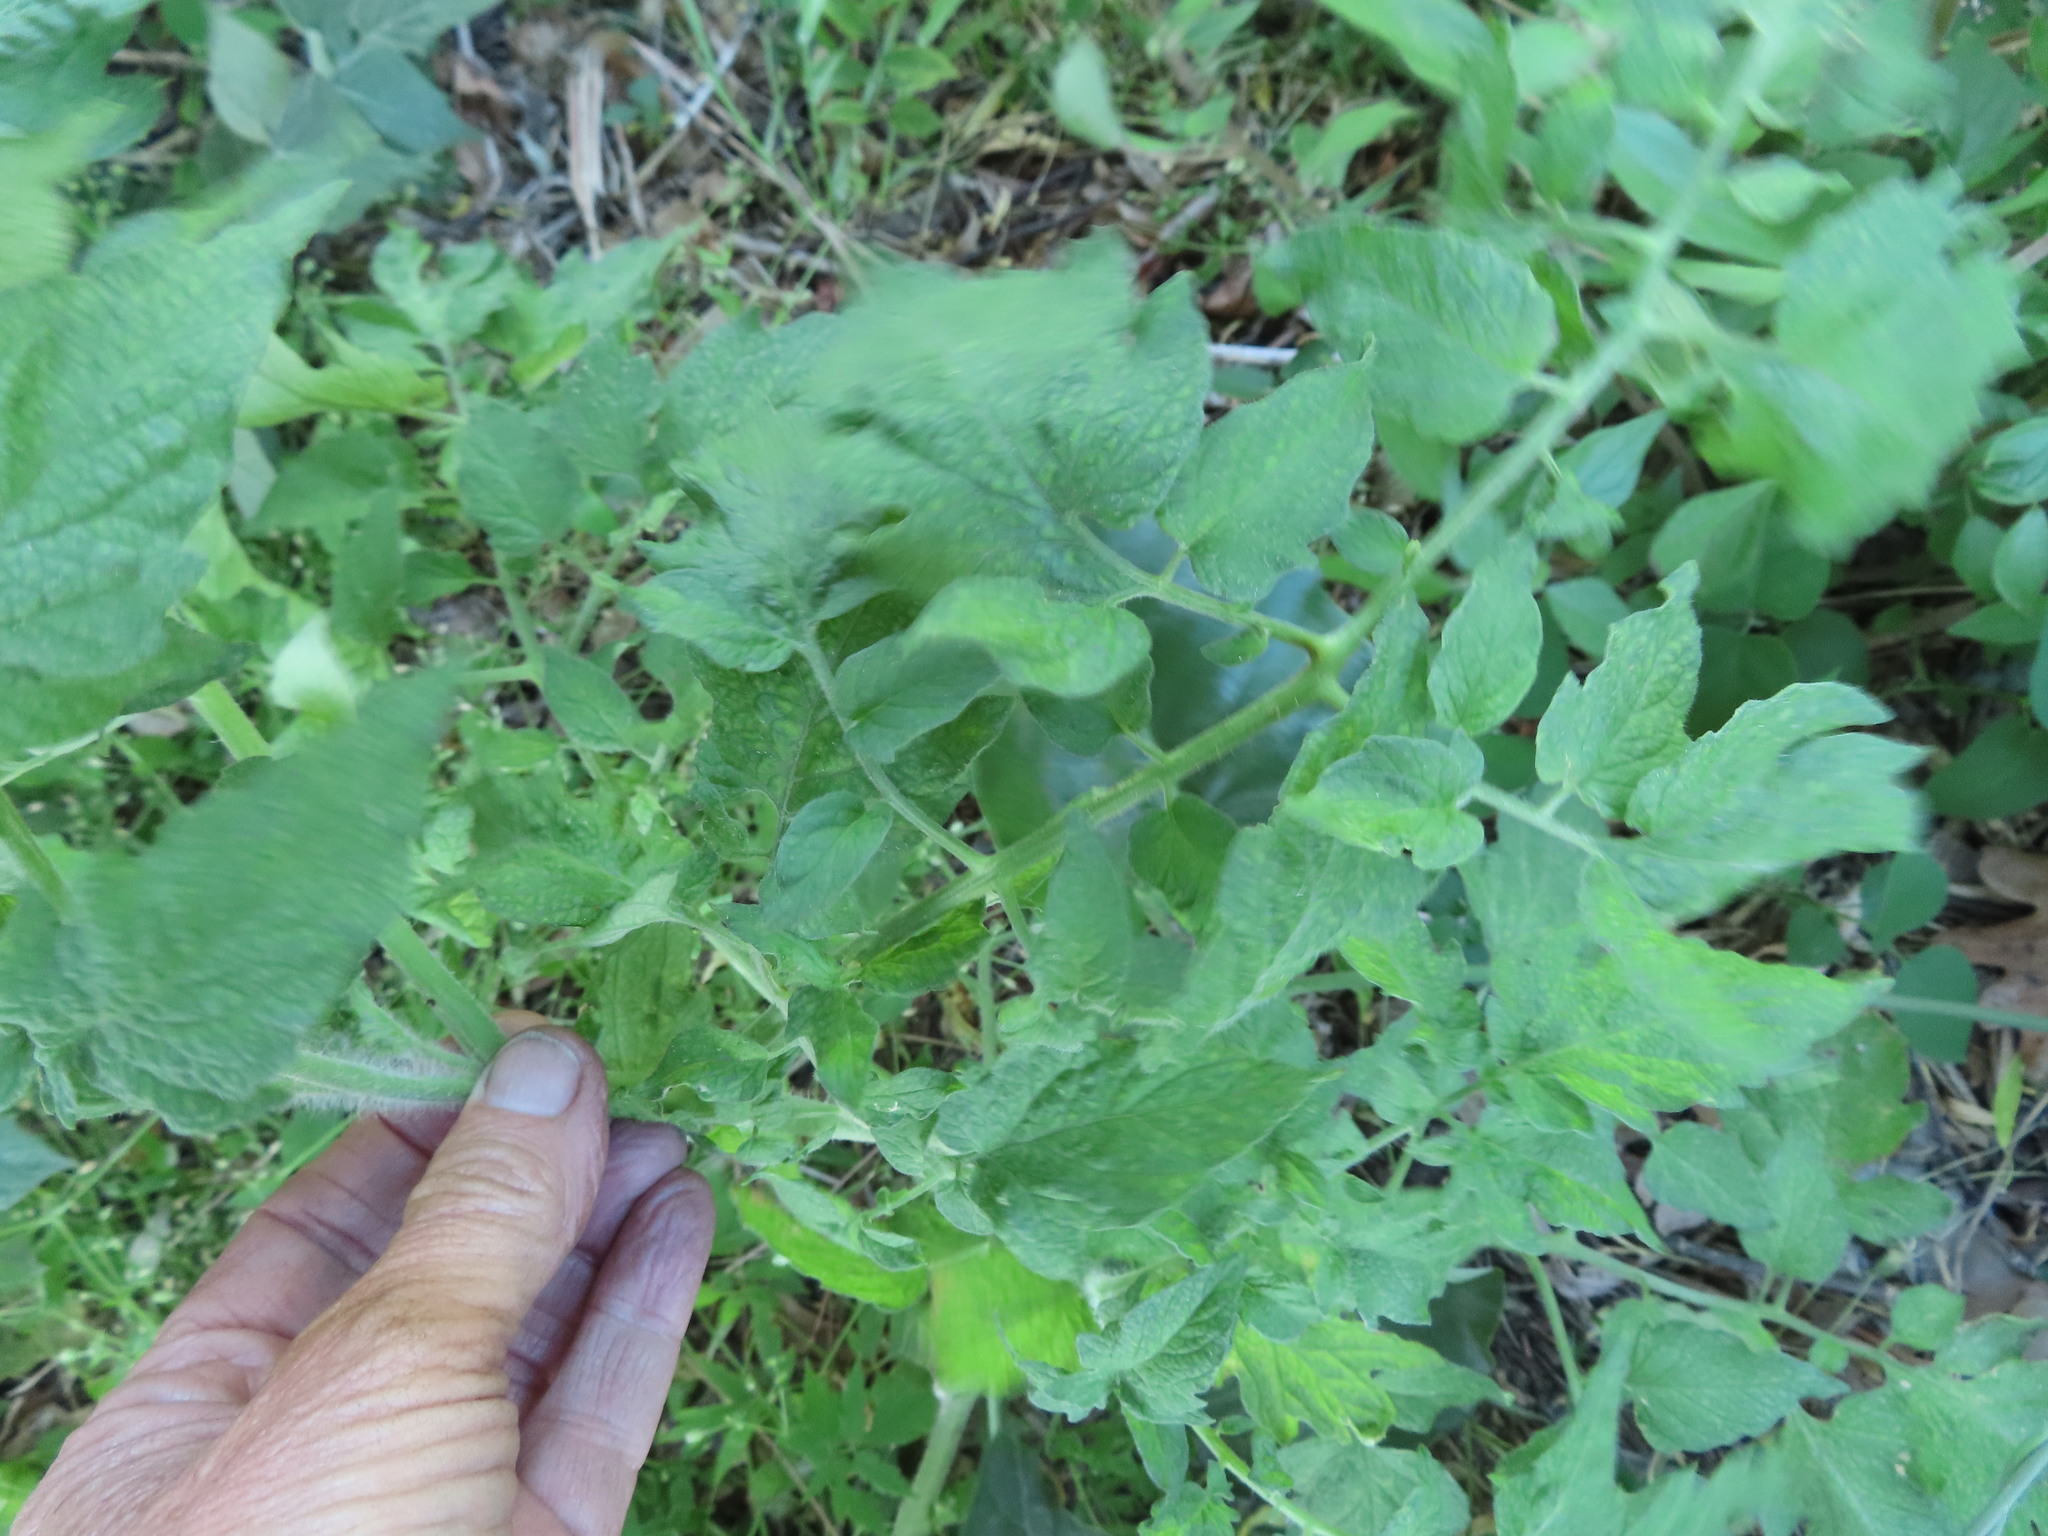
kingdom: Plantae
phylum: Tracheophyta
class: Magnoliopsida
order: Solanales
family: Solanaceae
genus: Solanum
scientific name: Solanum lycopersicum
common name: Garden tomato
